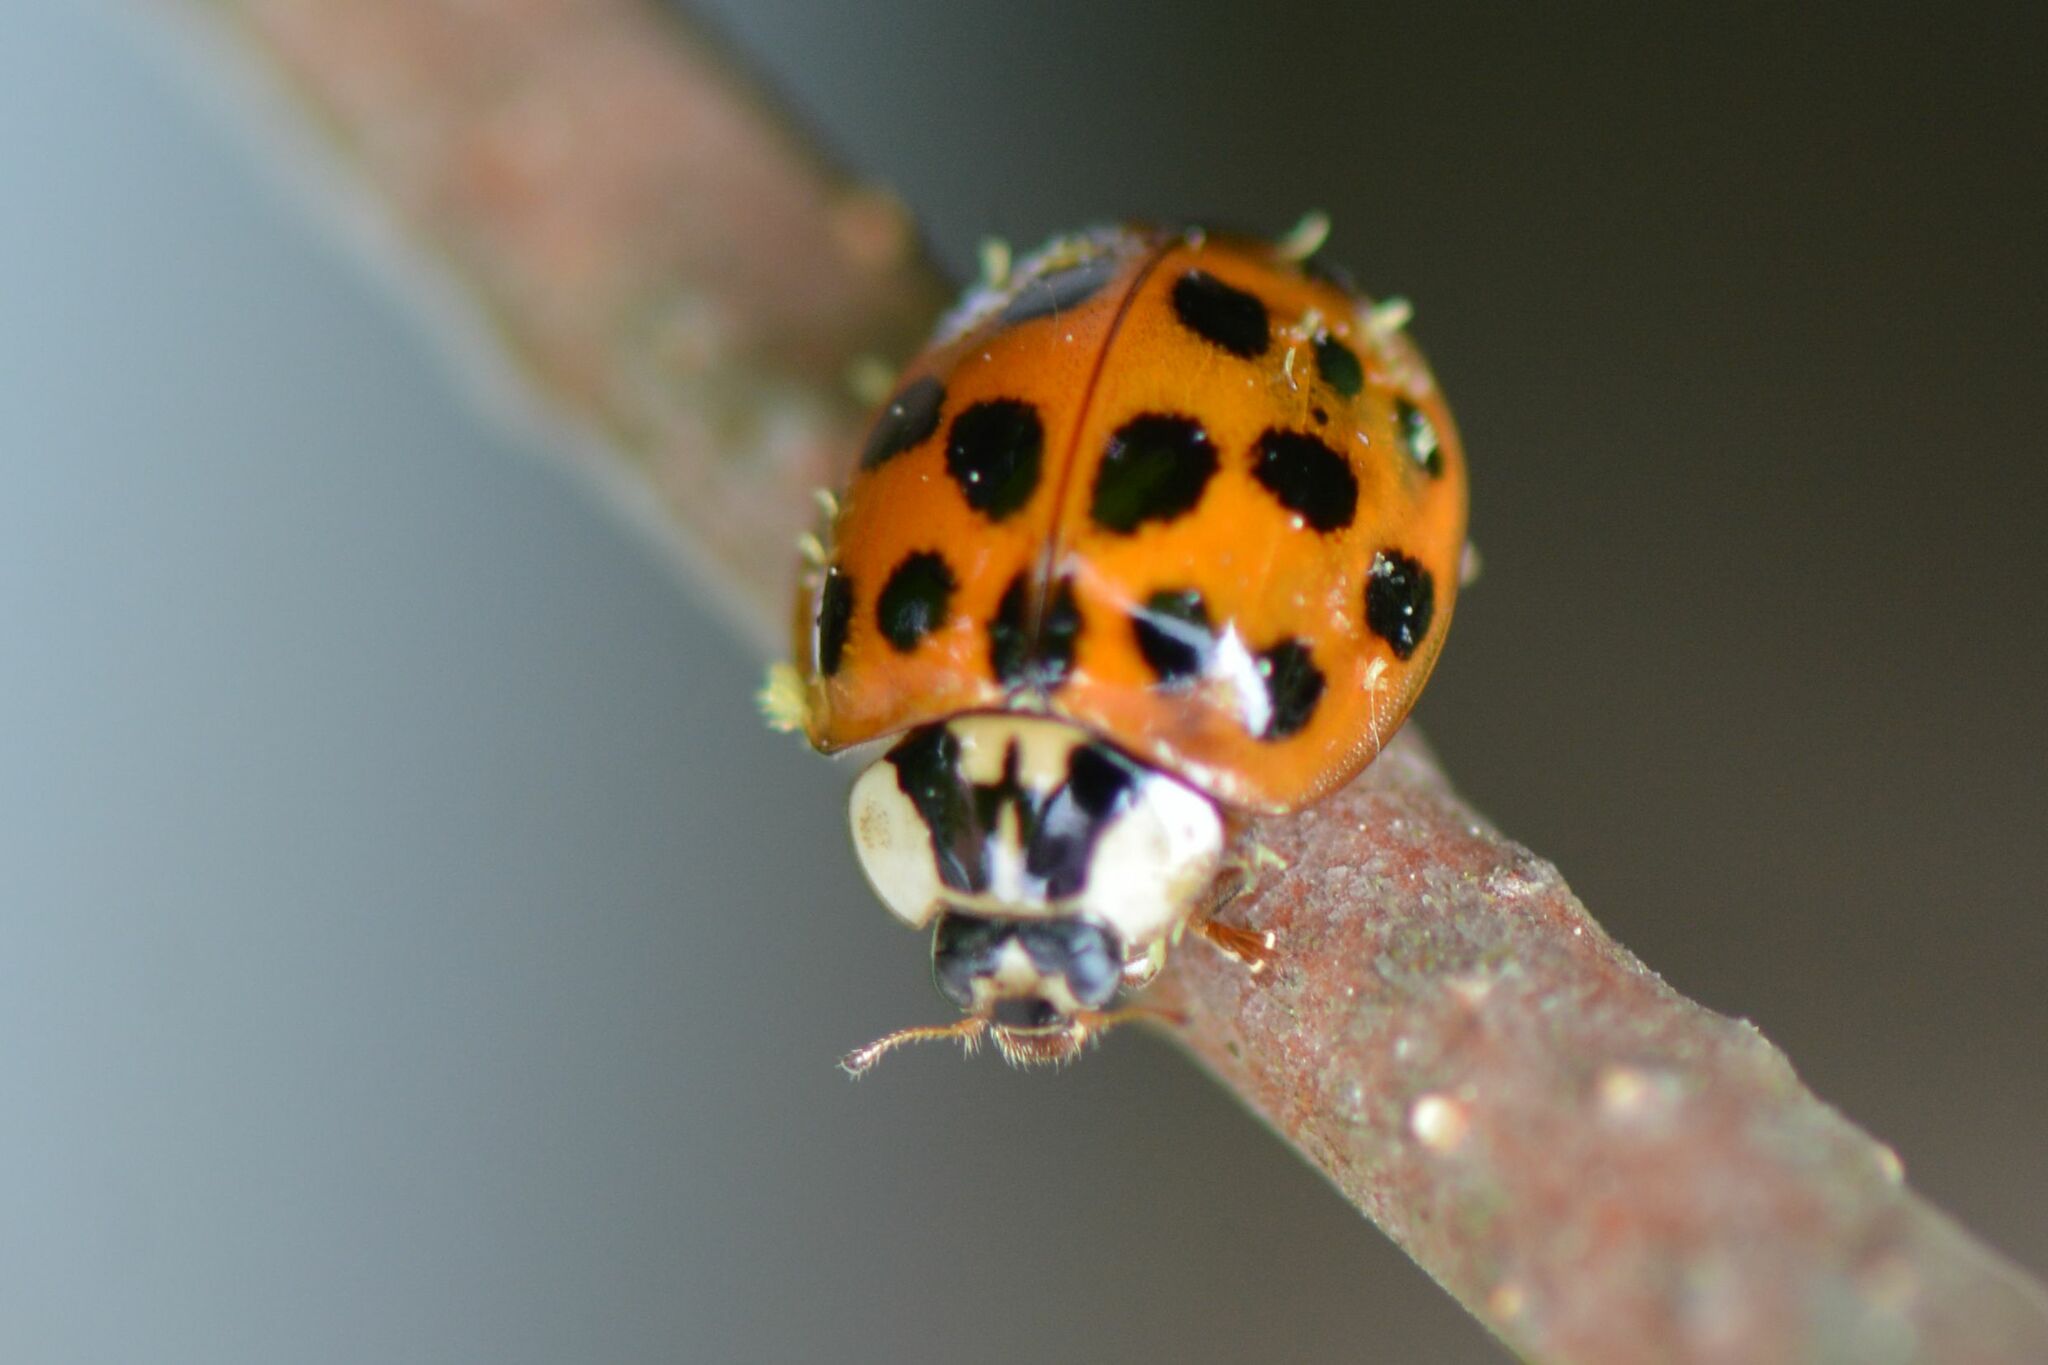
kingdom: Animalia
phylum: Arthropoda
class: Insecta
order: Coleoptera
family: Coccinellidae
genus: Harmonia
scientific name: Harmonia axyridis
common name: Harlequin ladybird
